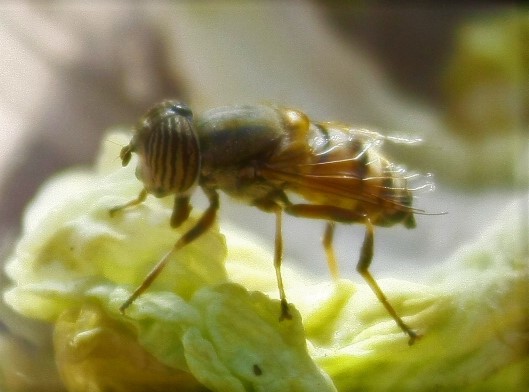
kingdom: Animalia
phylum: Arthropoda
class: Insecta
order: Diptera
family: Syrphidae
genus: Eristalinus
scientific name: Eristalinus taeniops
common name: Syrphid fly
